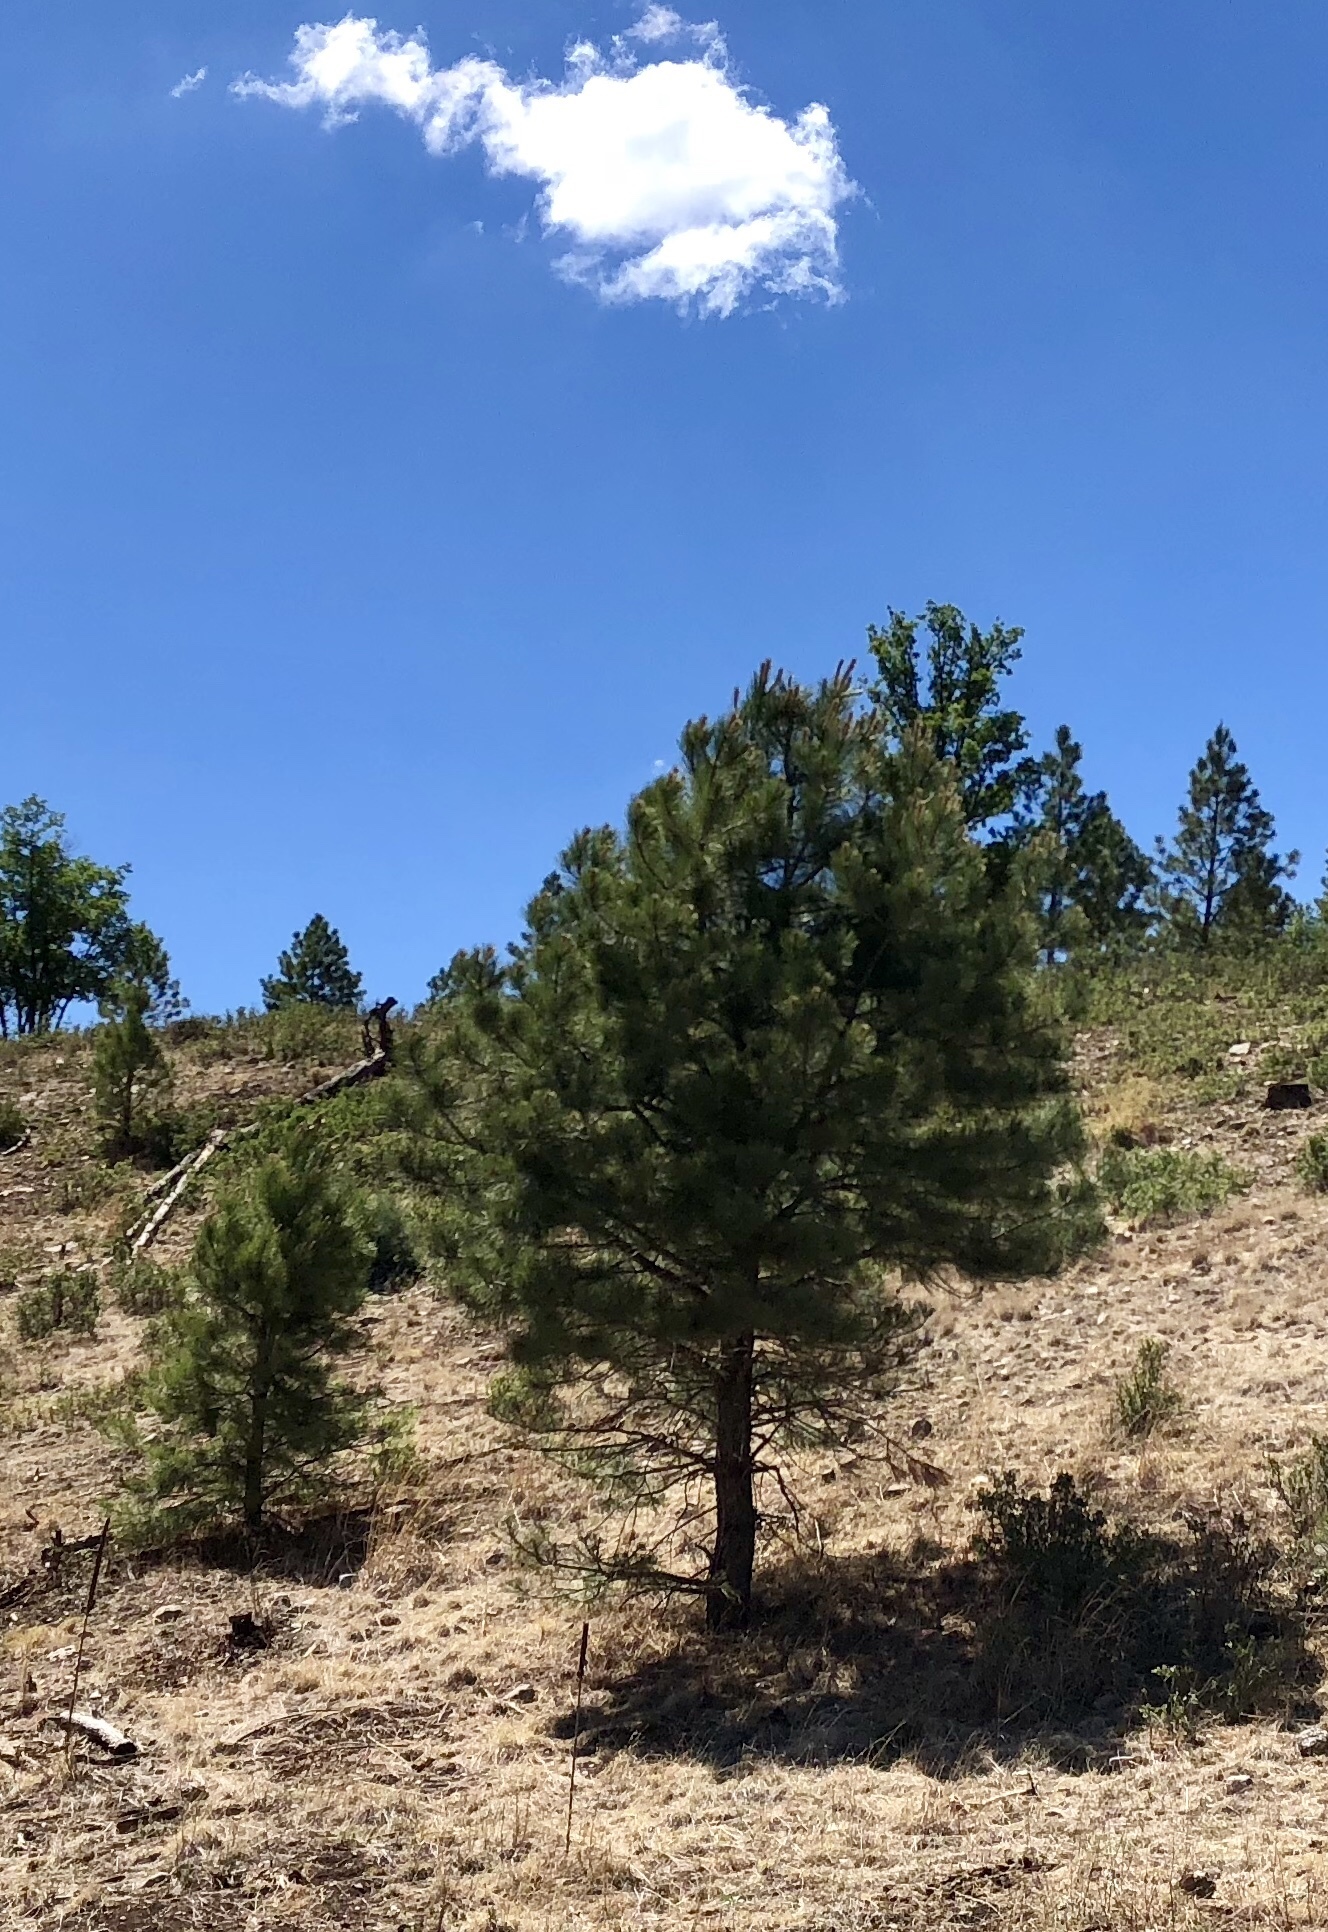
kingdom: Plantae
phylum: Tracheophyta
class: Pinopsida
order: Pinales
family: Pinaceae
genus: Pinus
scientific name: Pinus ponderosa
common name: Western yellow-pine
